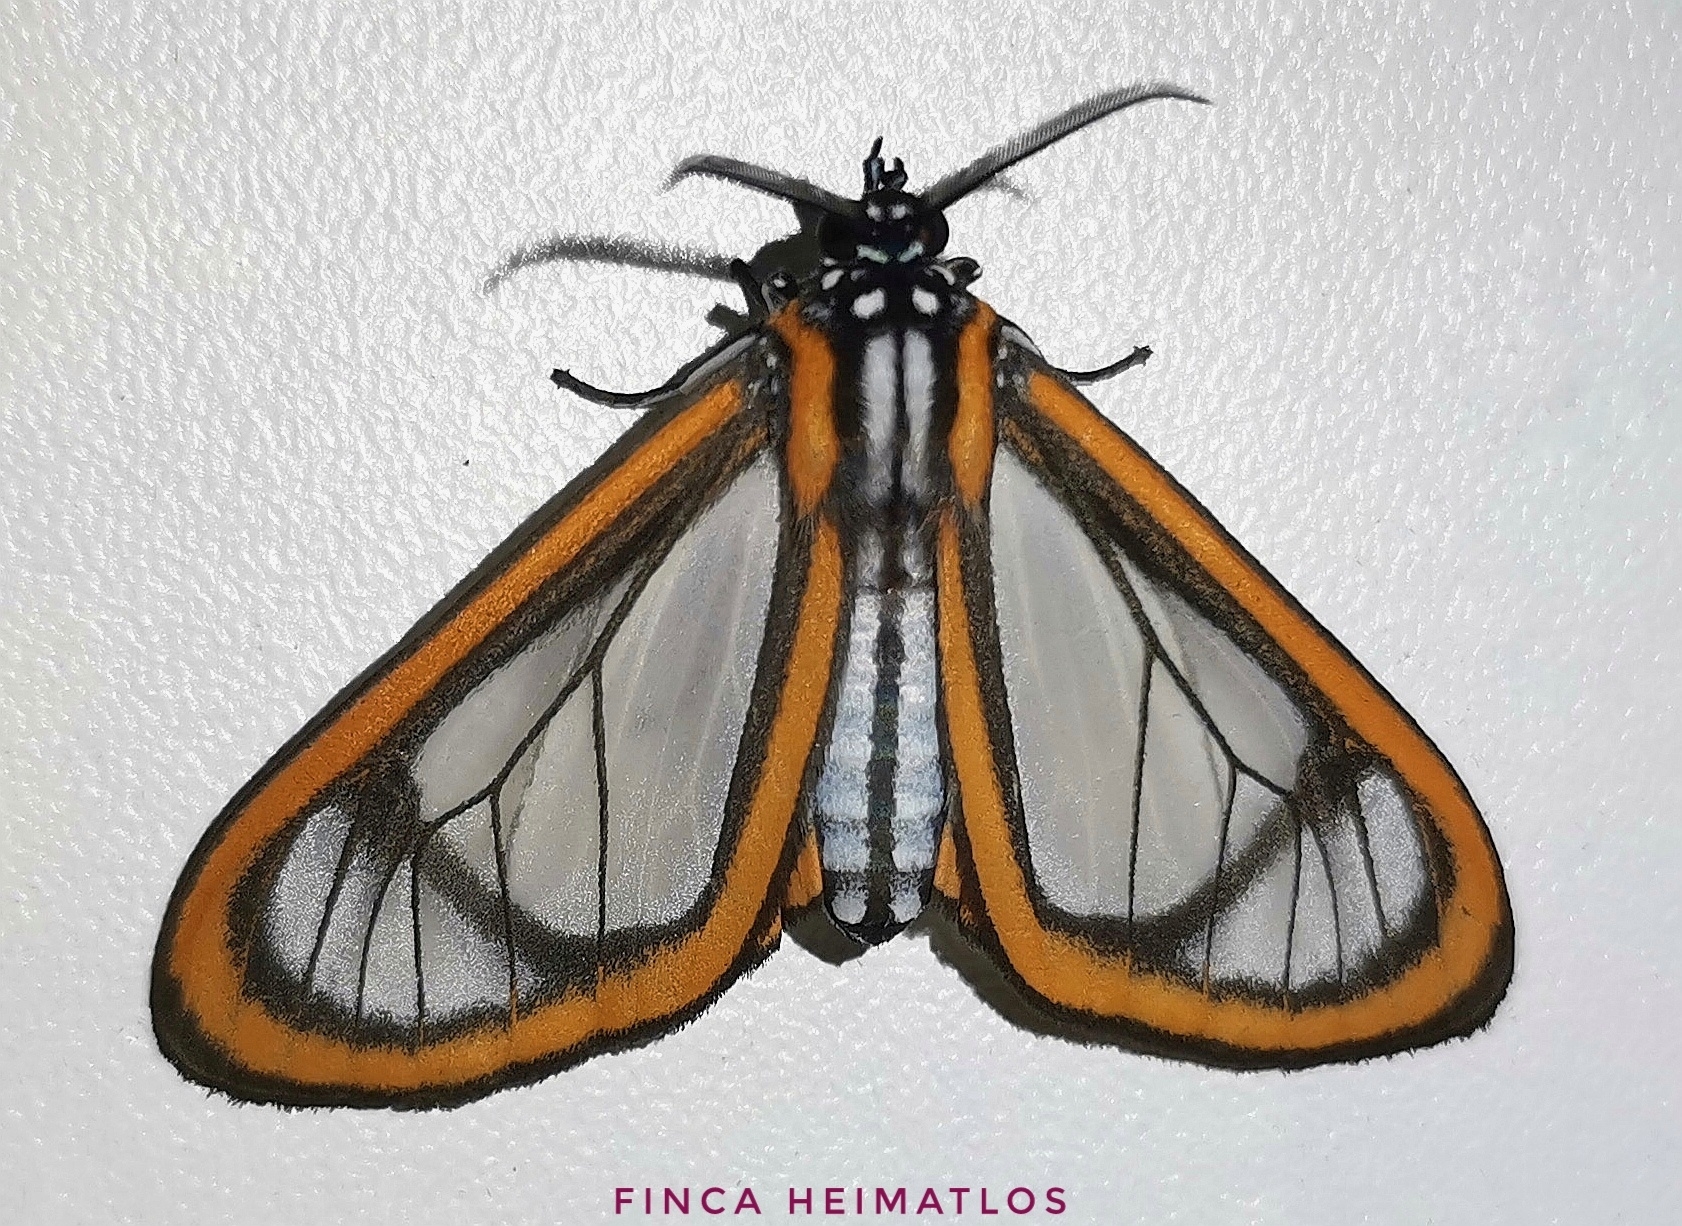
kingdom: Animalia
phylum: Arthropoda
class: Insecta
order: Lepidoptera
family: Erebidae
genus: Hyalurga
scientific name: Hyalurga urioides
